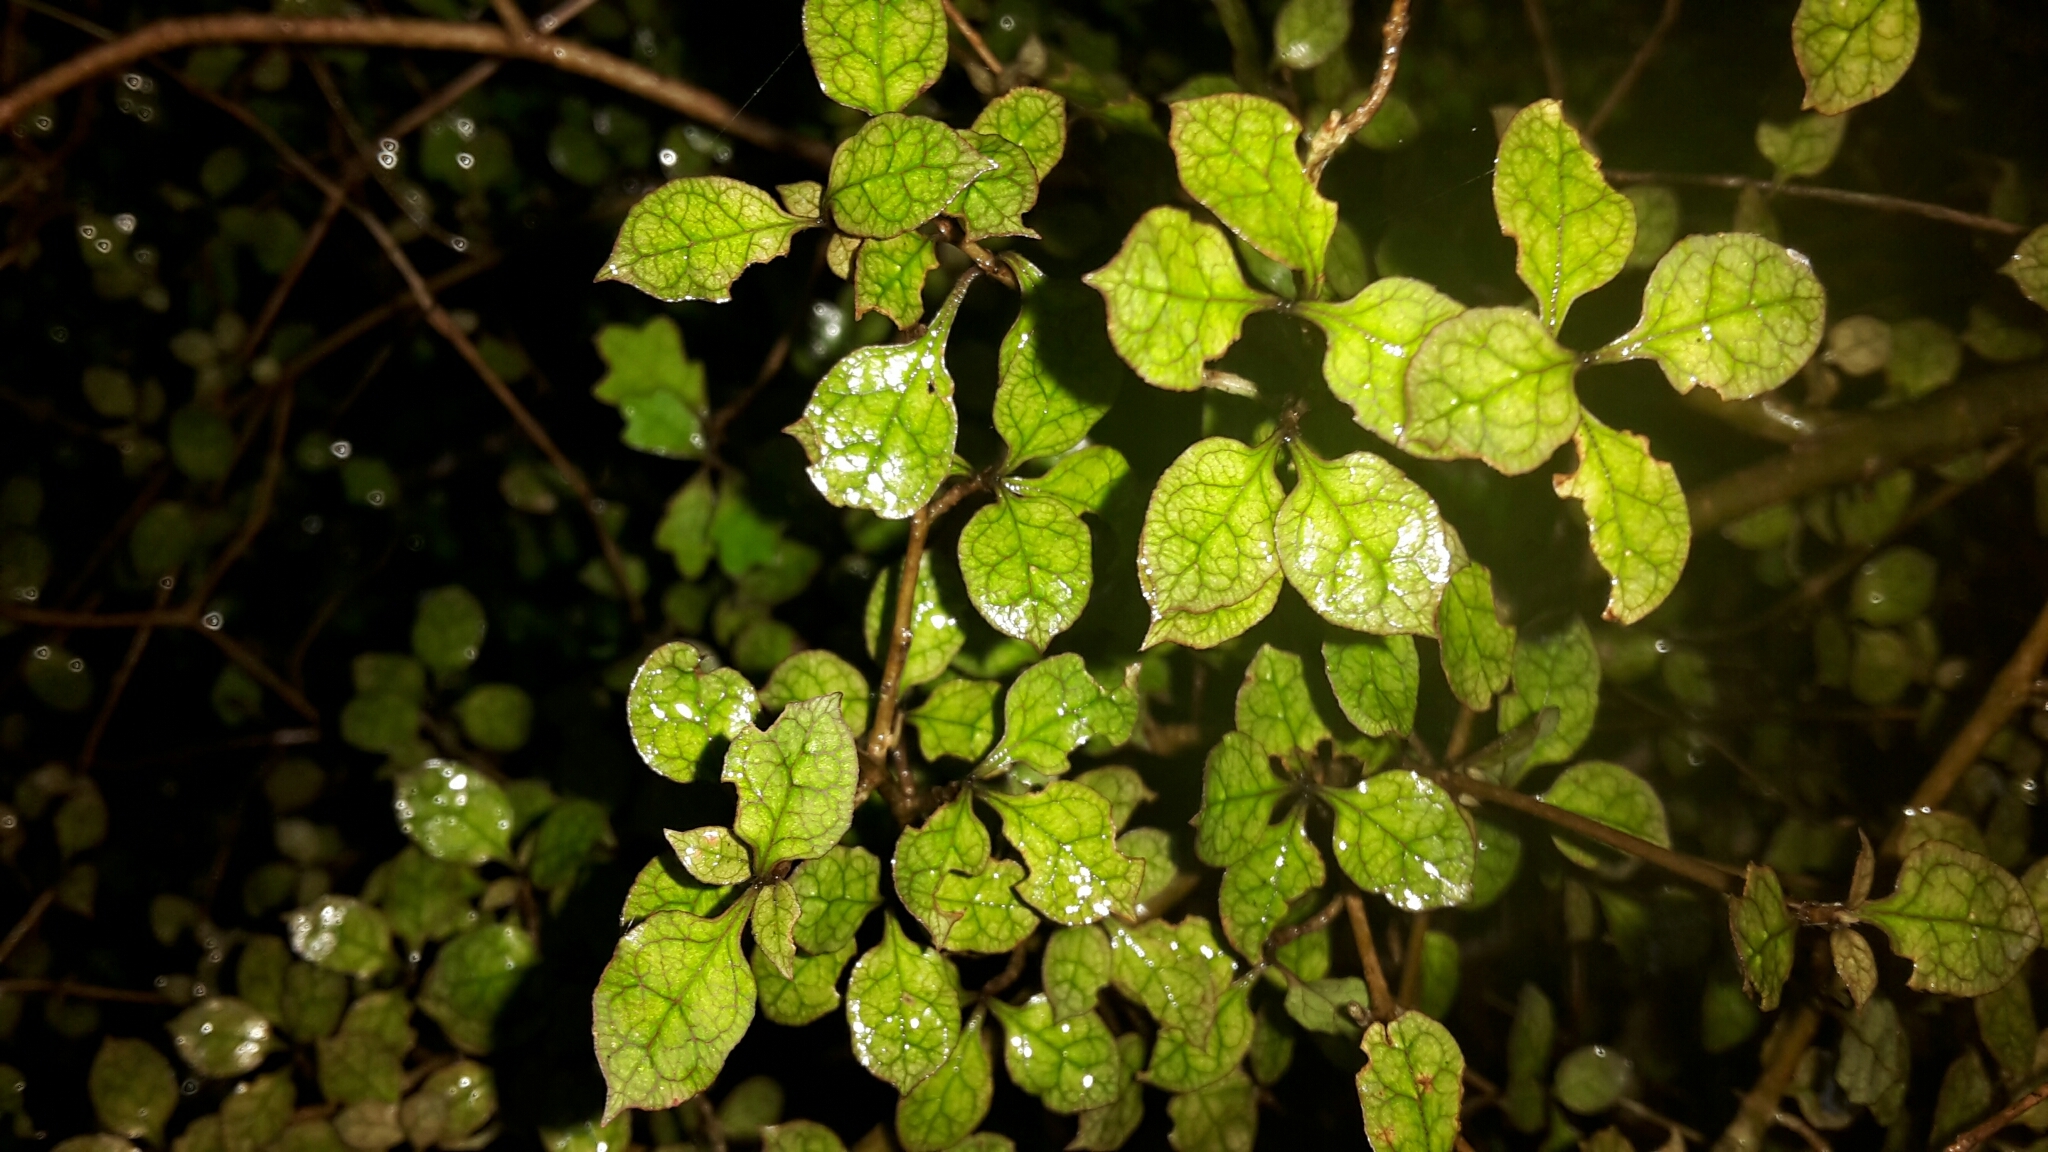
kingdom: Plantae
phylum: Tracheophyta
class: Magnoliopsida
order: Gentianales
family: Rubiaceae
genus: Coprosma
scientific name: Coprosma areolata
